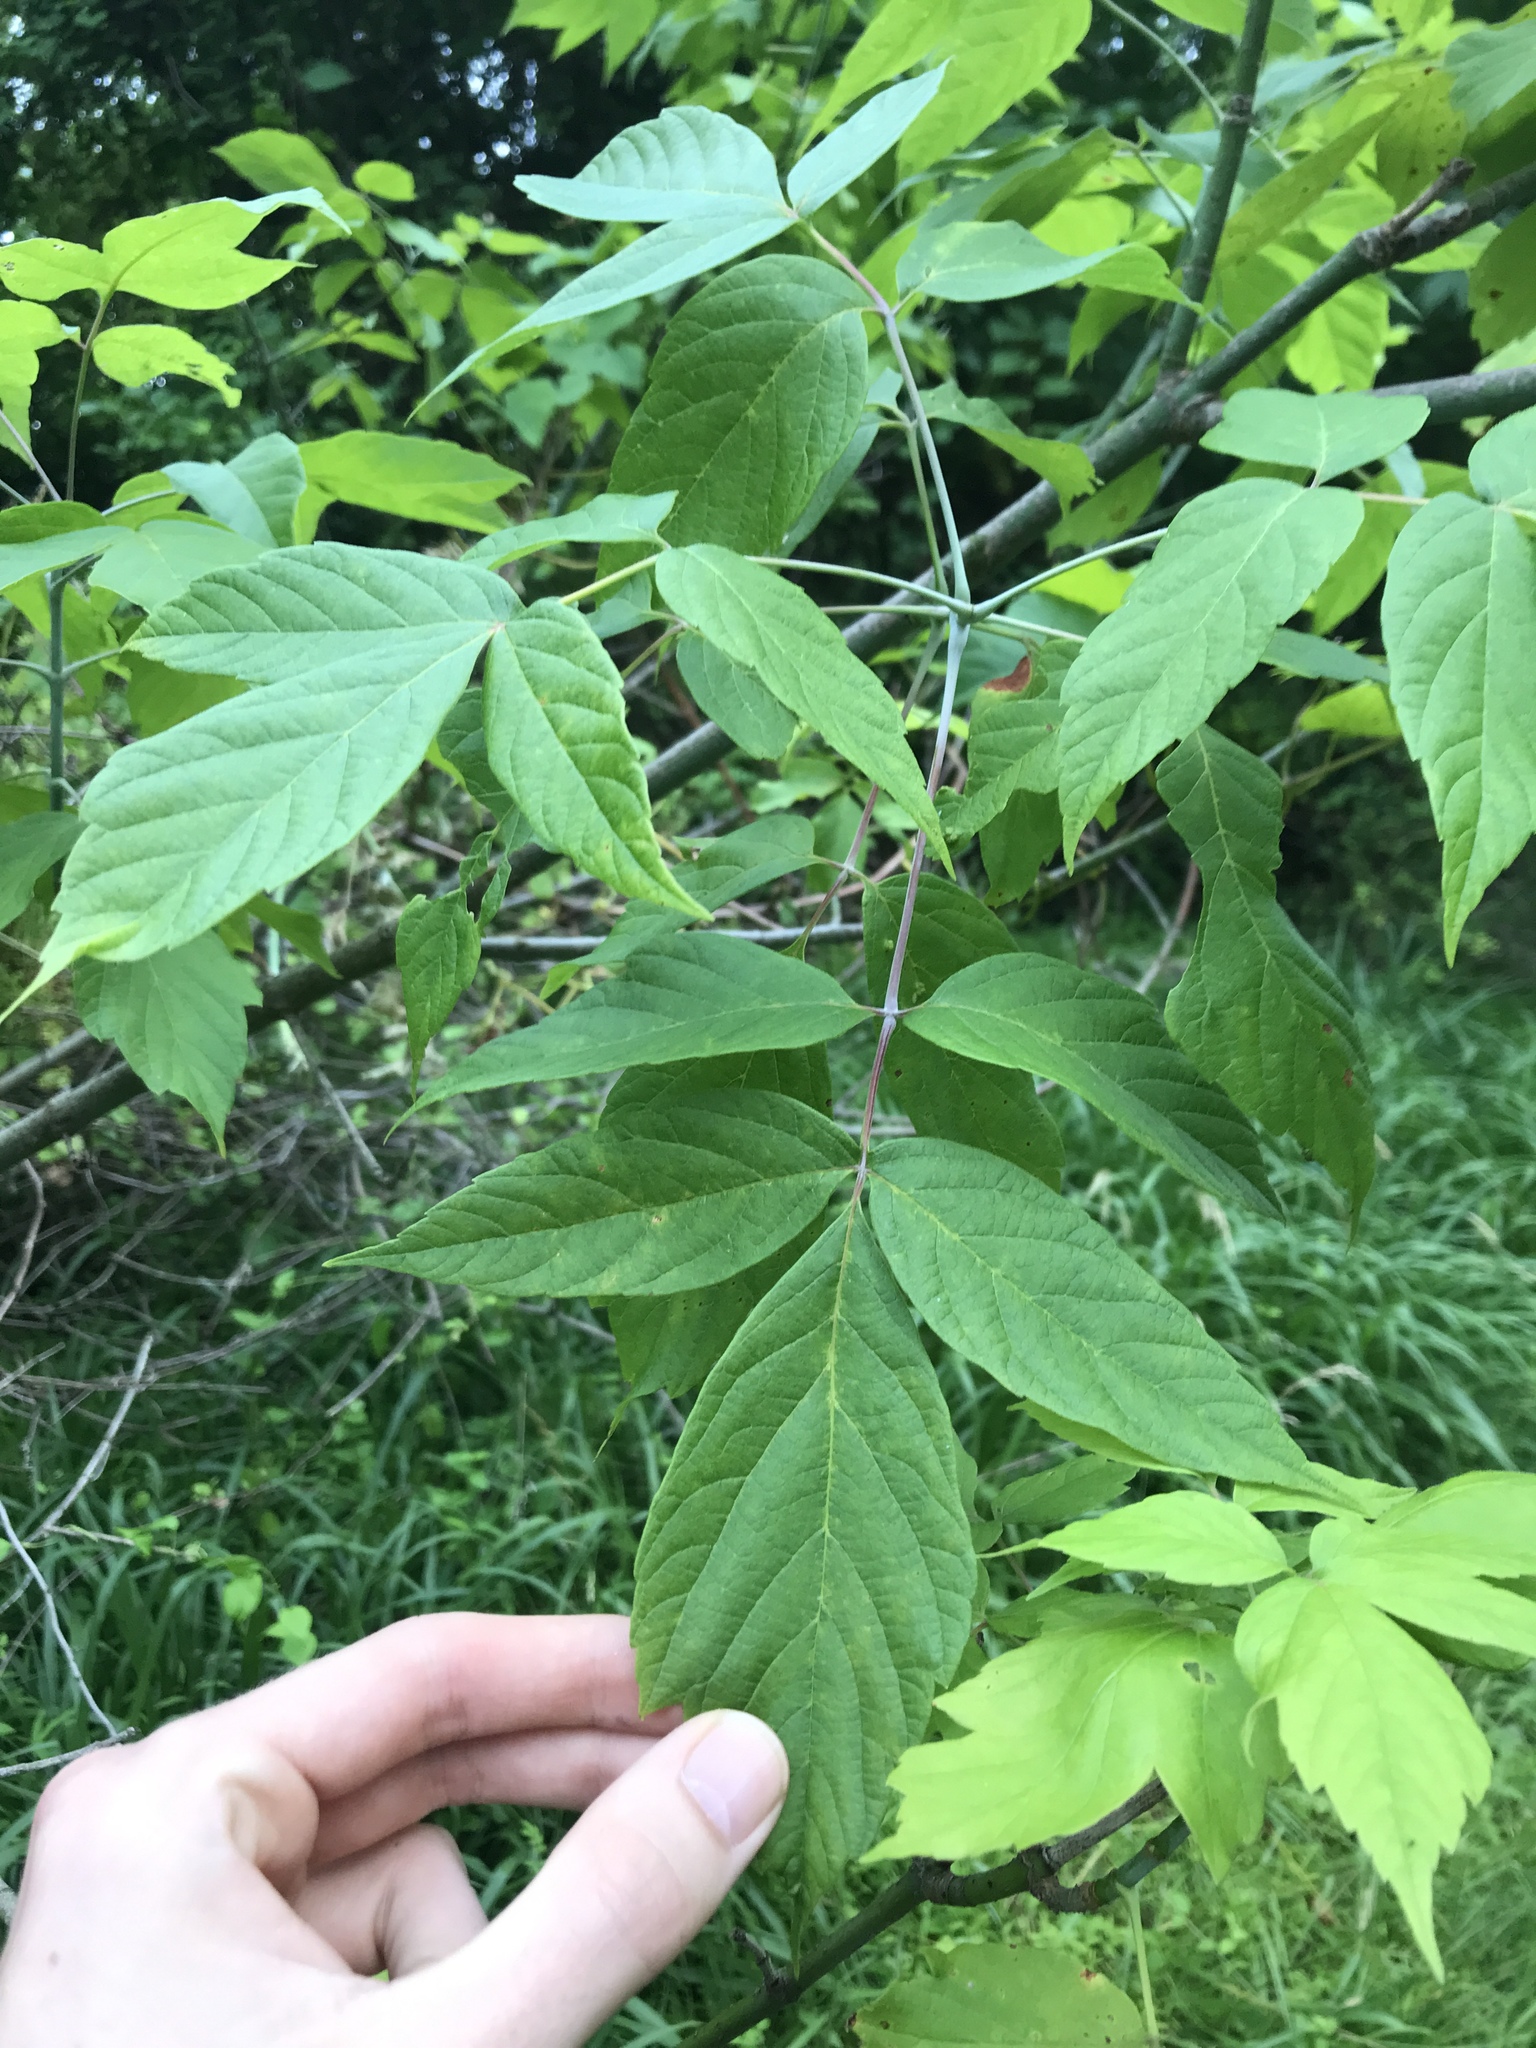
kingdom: Plantae
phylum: Tracheophyta
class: Magnoliopsida
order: Sapindales
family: Sapindaceae
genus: Acer
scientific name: Acer negundo
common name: Ashleaf maple
